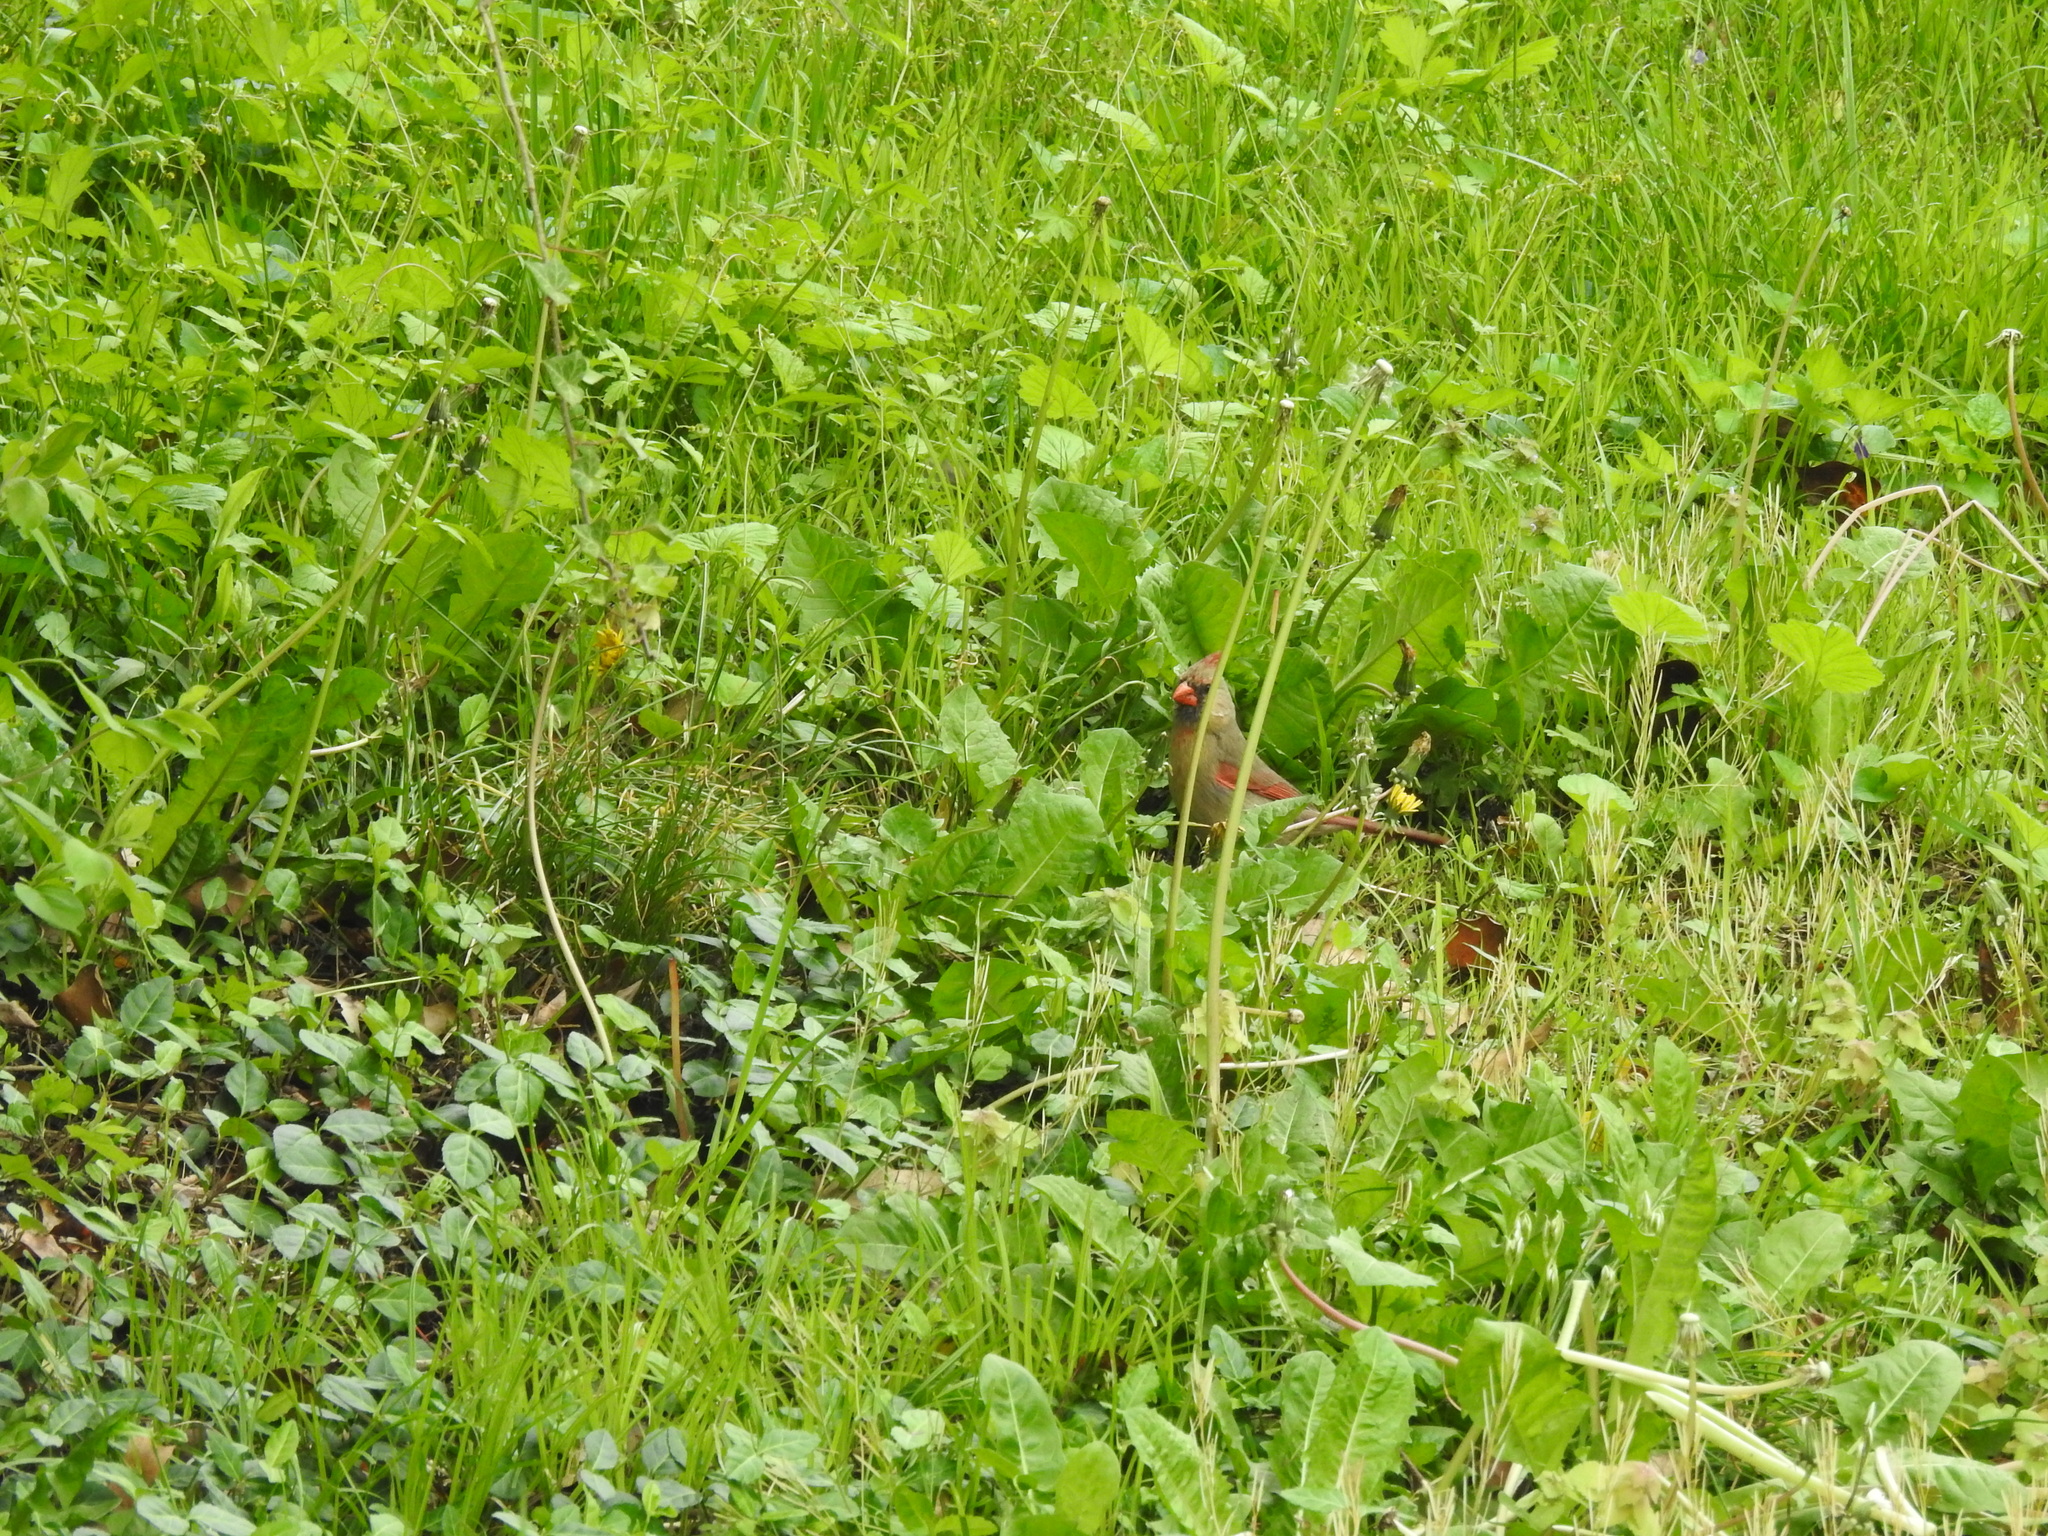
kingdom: Animalia
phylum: Chordata
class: Aves
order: Passeriformes
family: Cardinalidae
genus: Cardinalis
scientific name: Cardinalis cardinalis
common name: Northern cardinal
